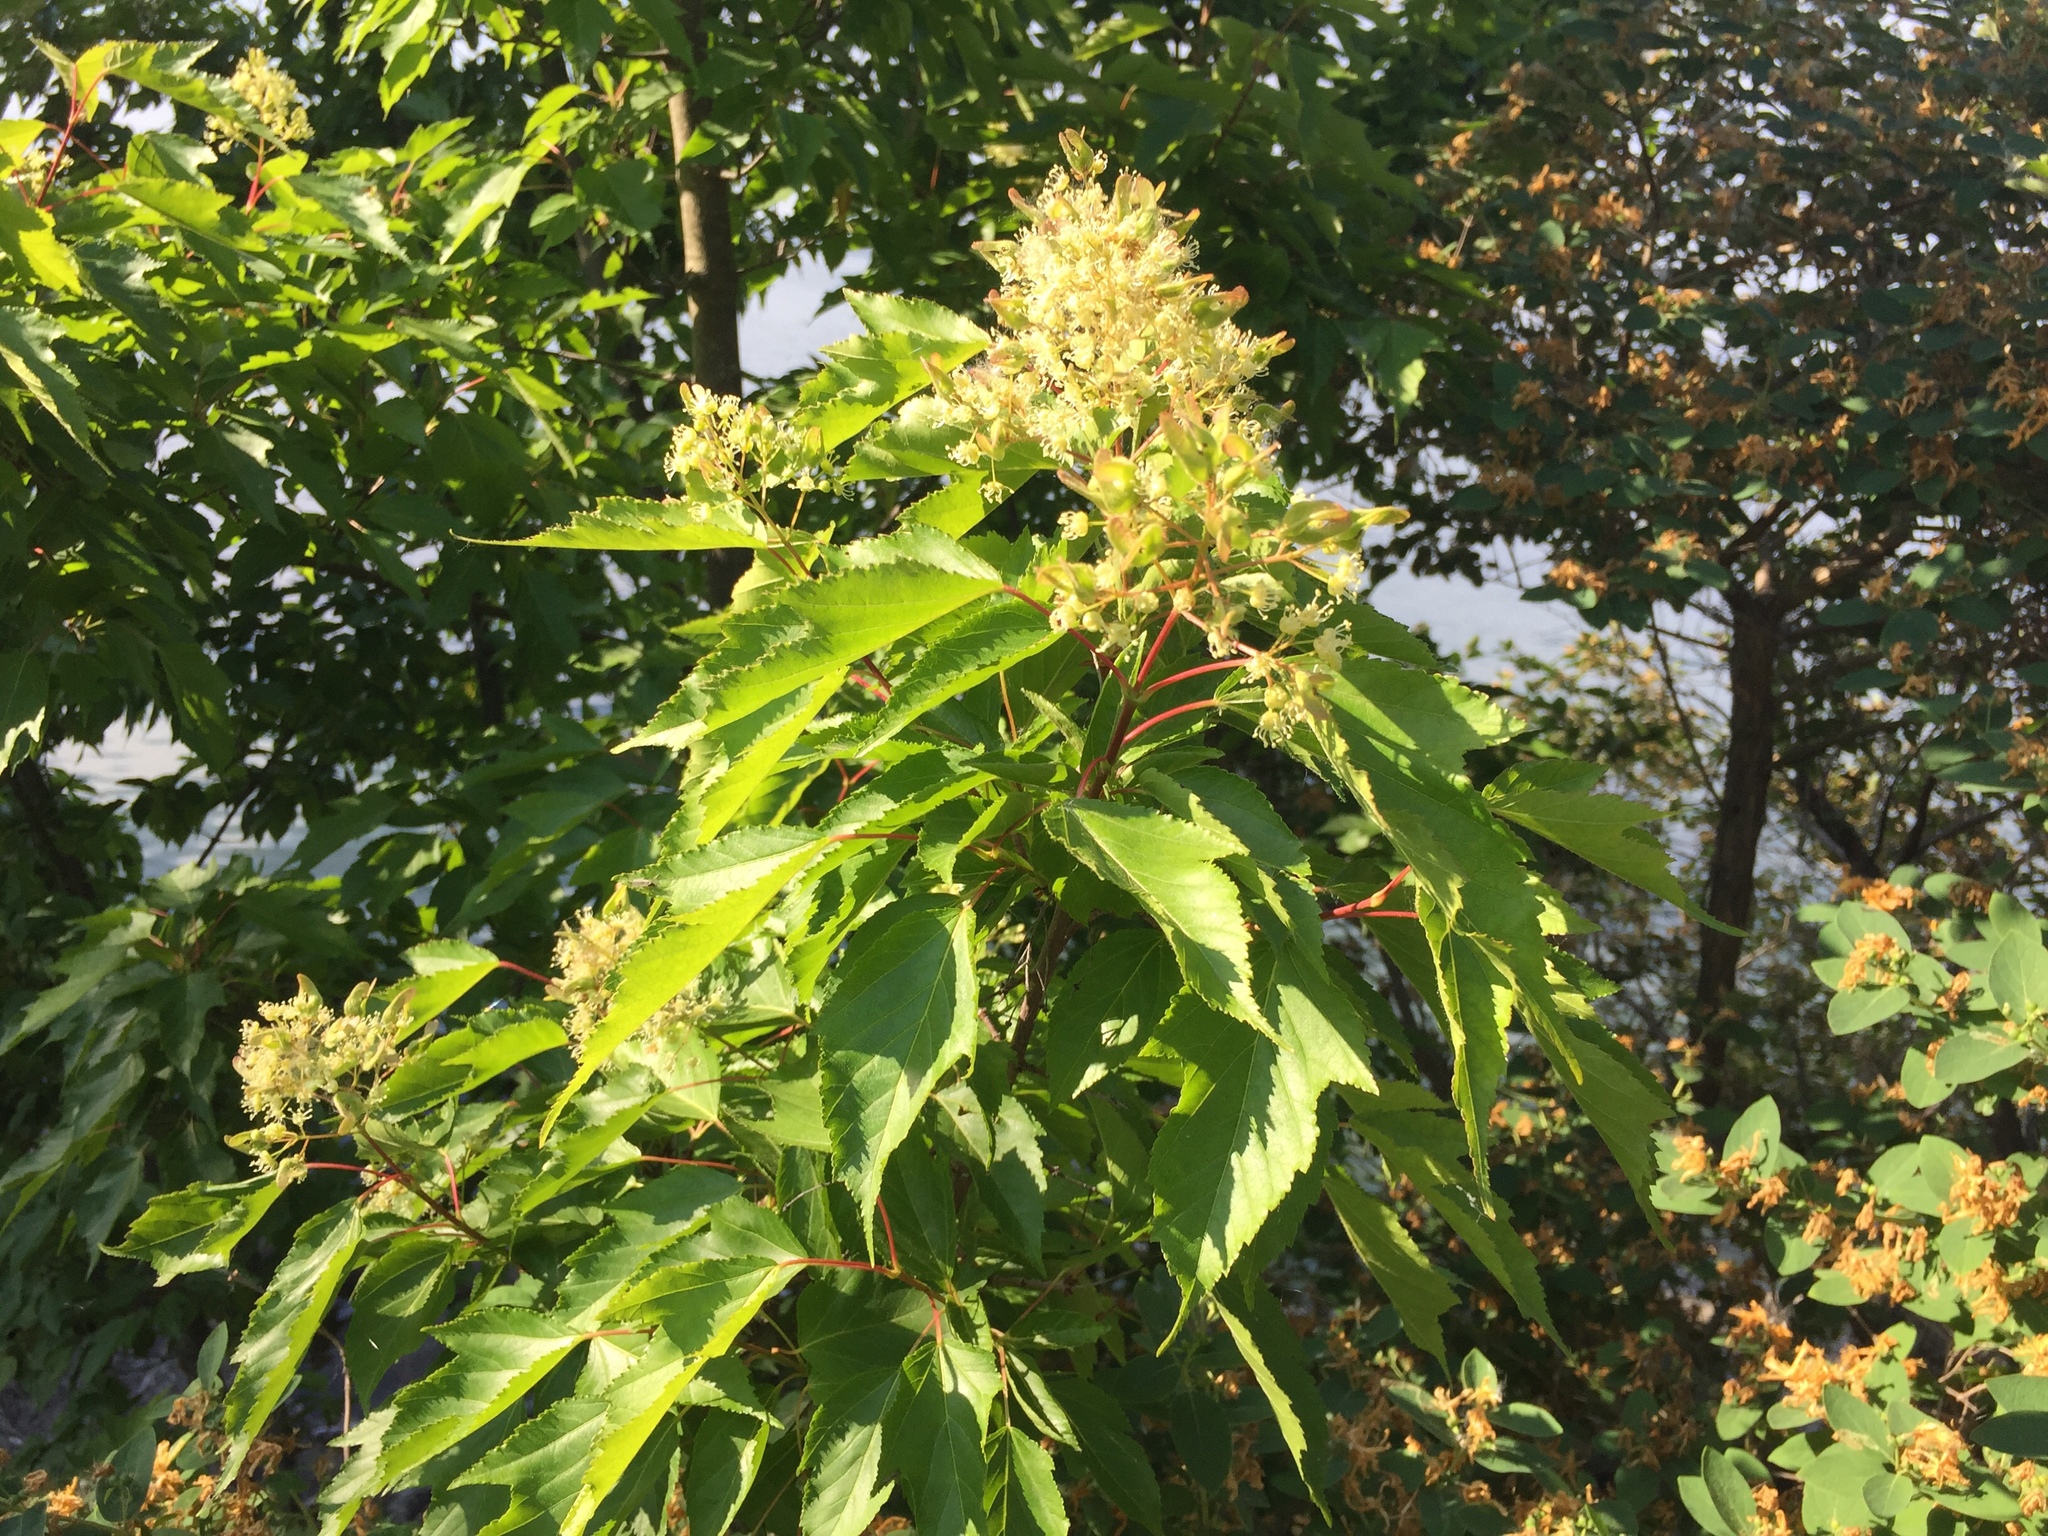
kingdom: Plantae
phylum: Tracheophyta
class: Magnoliopsida
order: Sapindales
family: Sapindaceae
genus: Acer
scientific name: Acer tataricum
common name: Tartar maple
